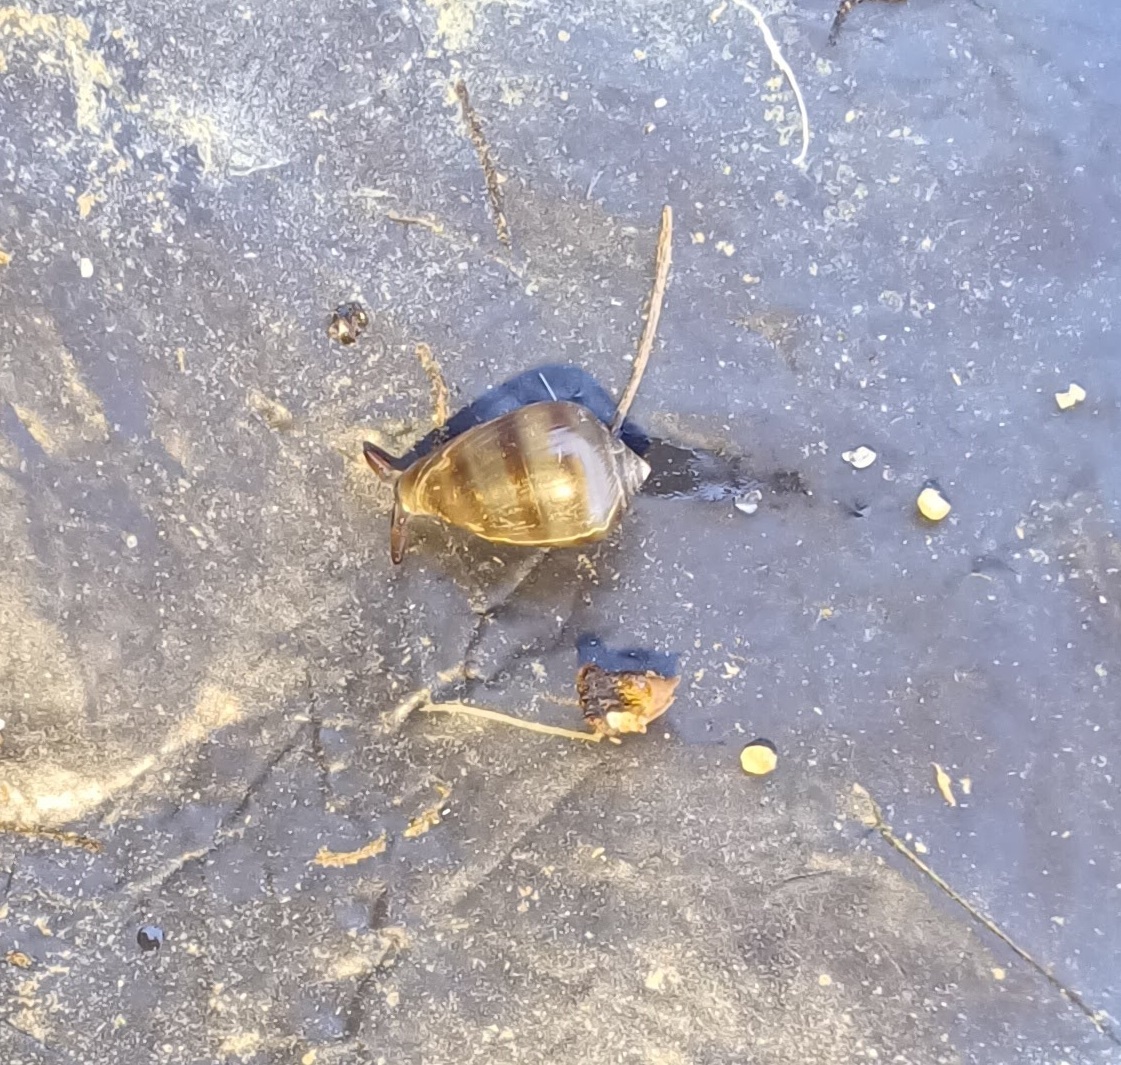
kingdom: Animalia
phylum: Mollusca
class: Gastropoda
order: Ellobiida
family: Ellobiidae
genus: Melampus
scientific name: Melampus bidentatus
